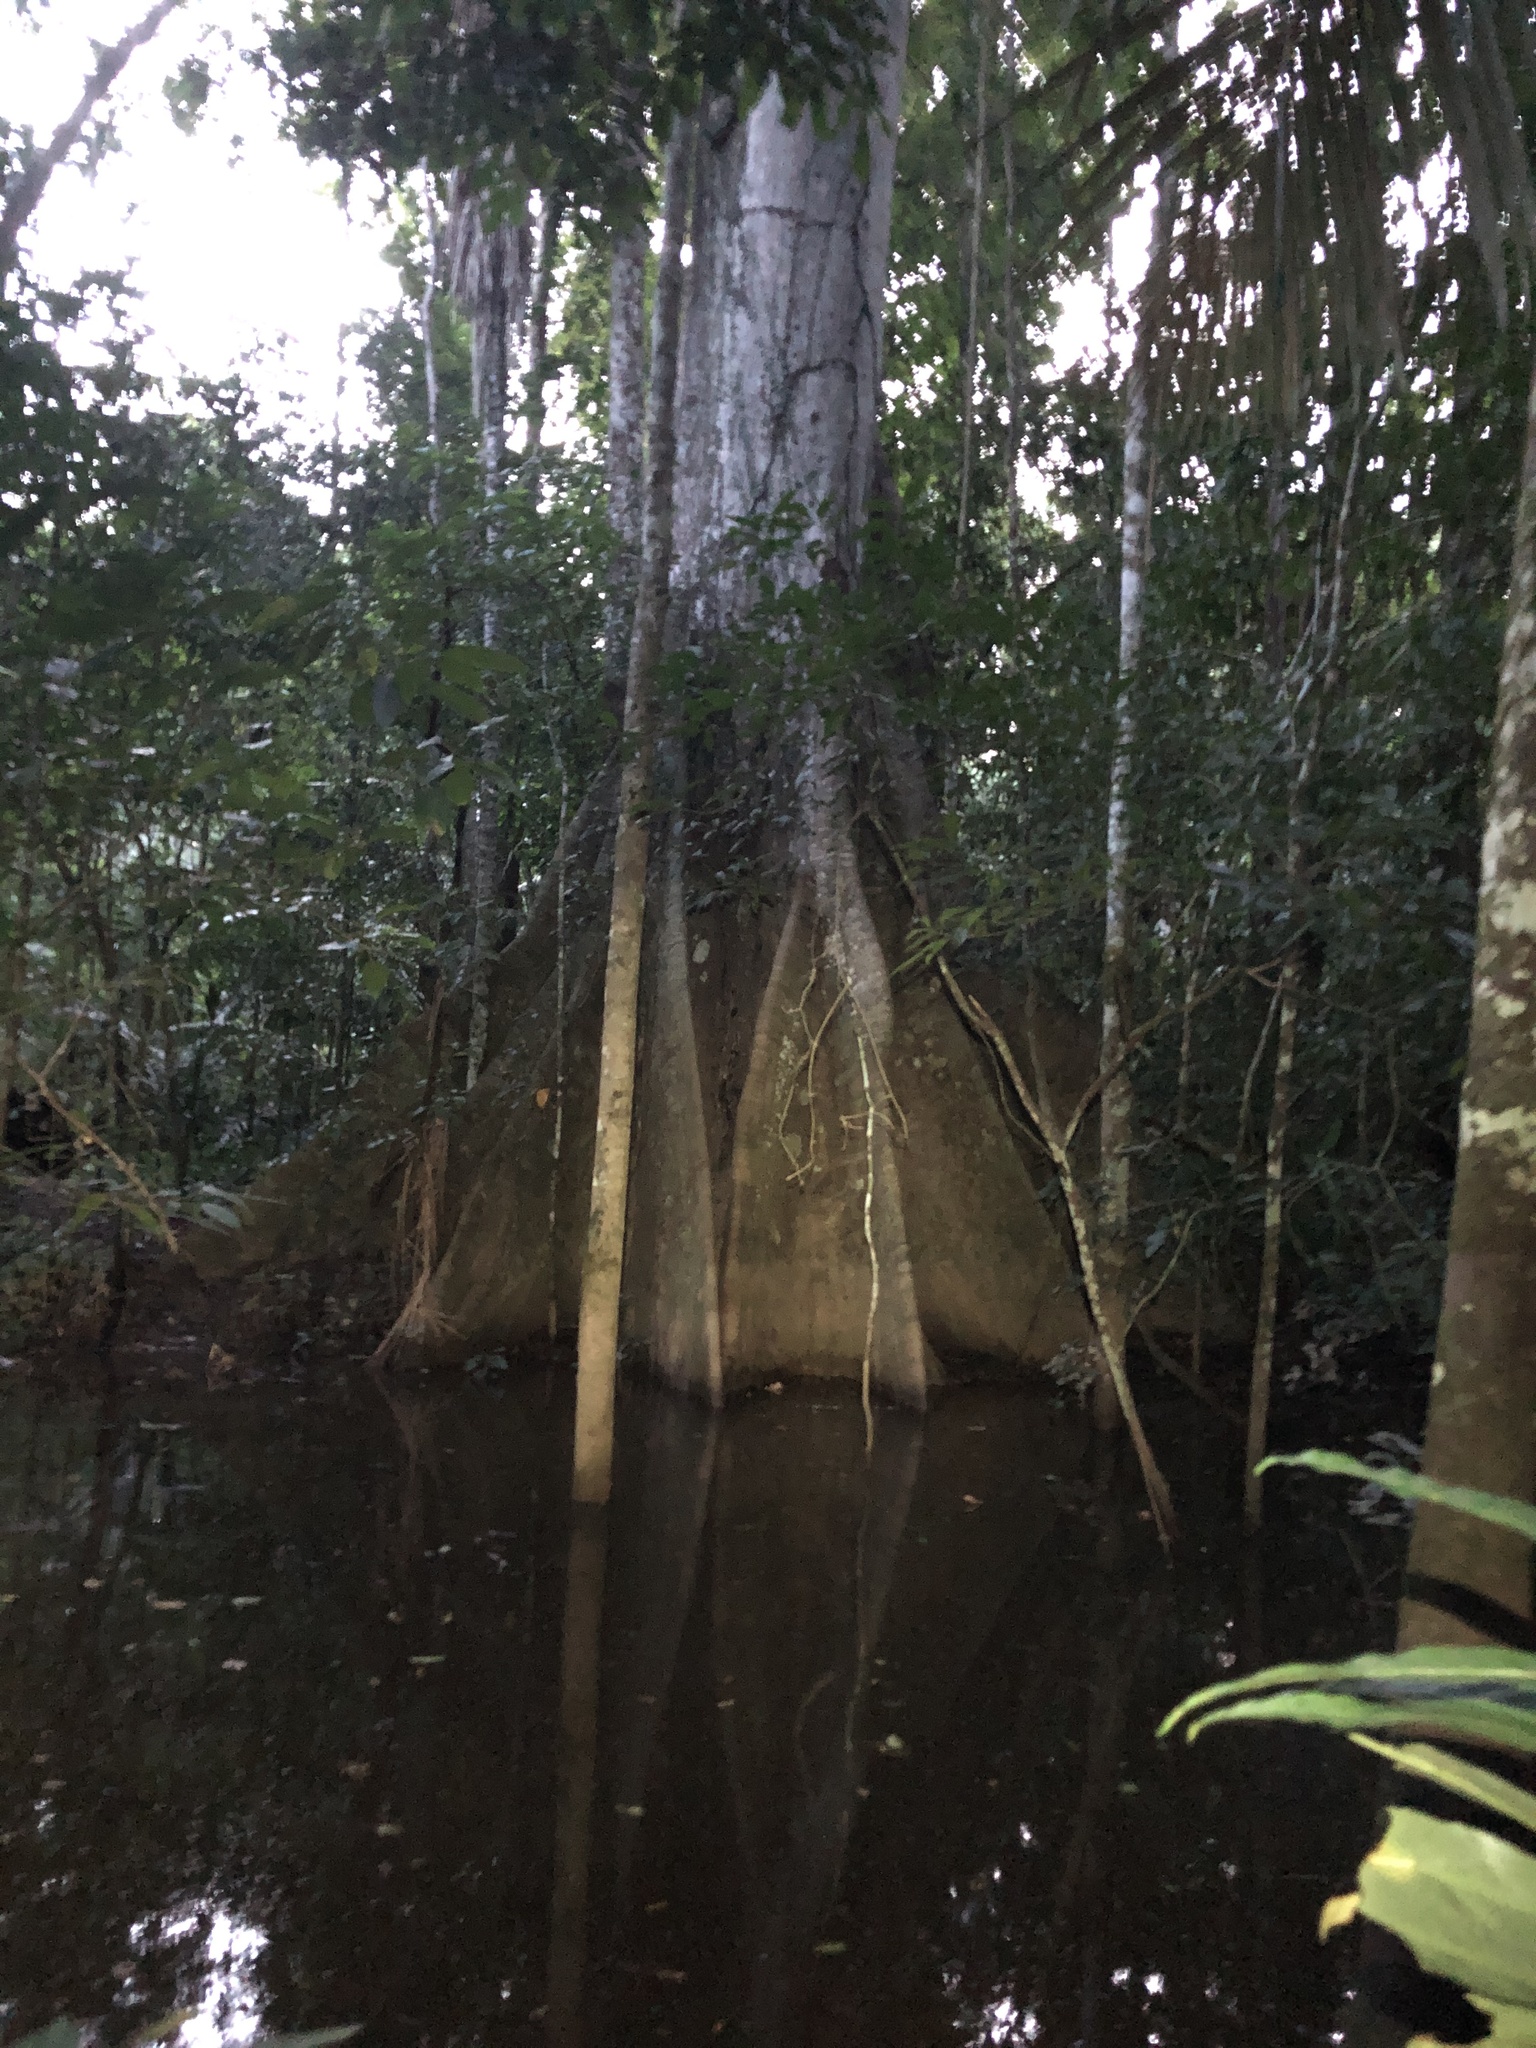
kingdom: Plantae
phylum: Tracheophyta
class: Magnoliopsida
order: Malvales
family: Malvaceae
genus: Ceiba
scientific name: Ceiba pentandra
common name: Kapok
